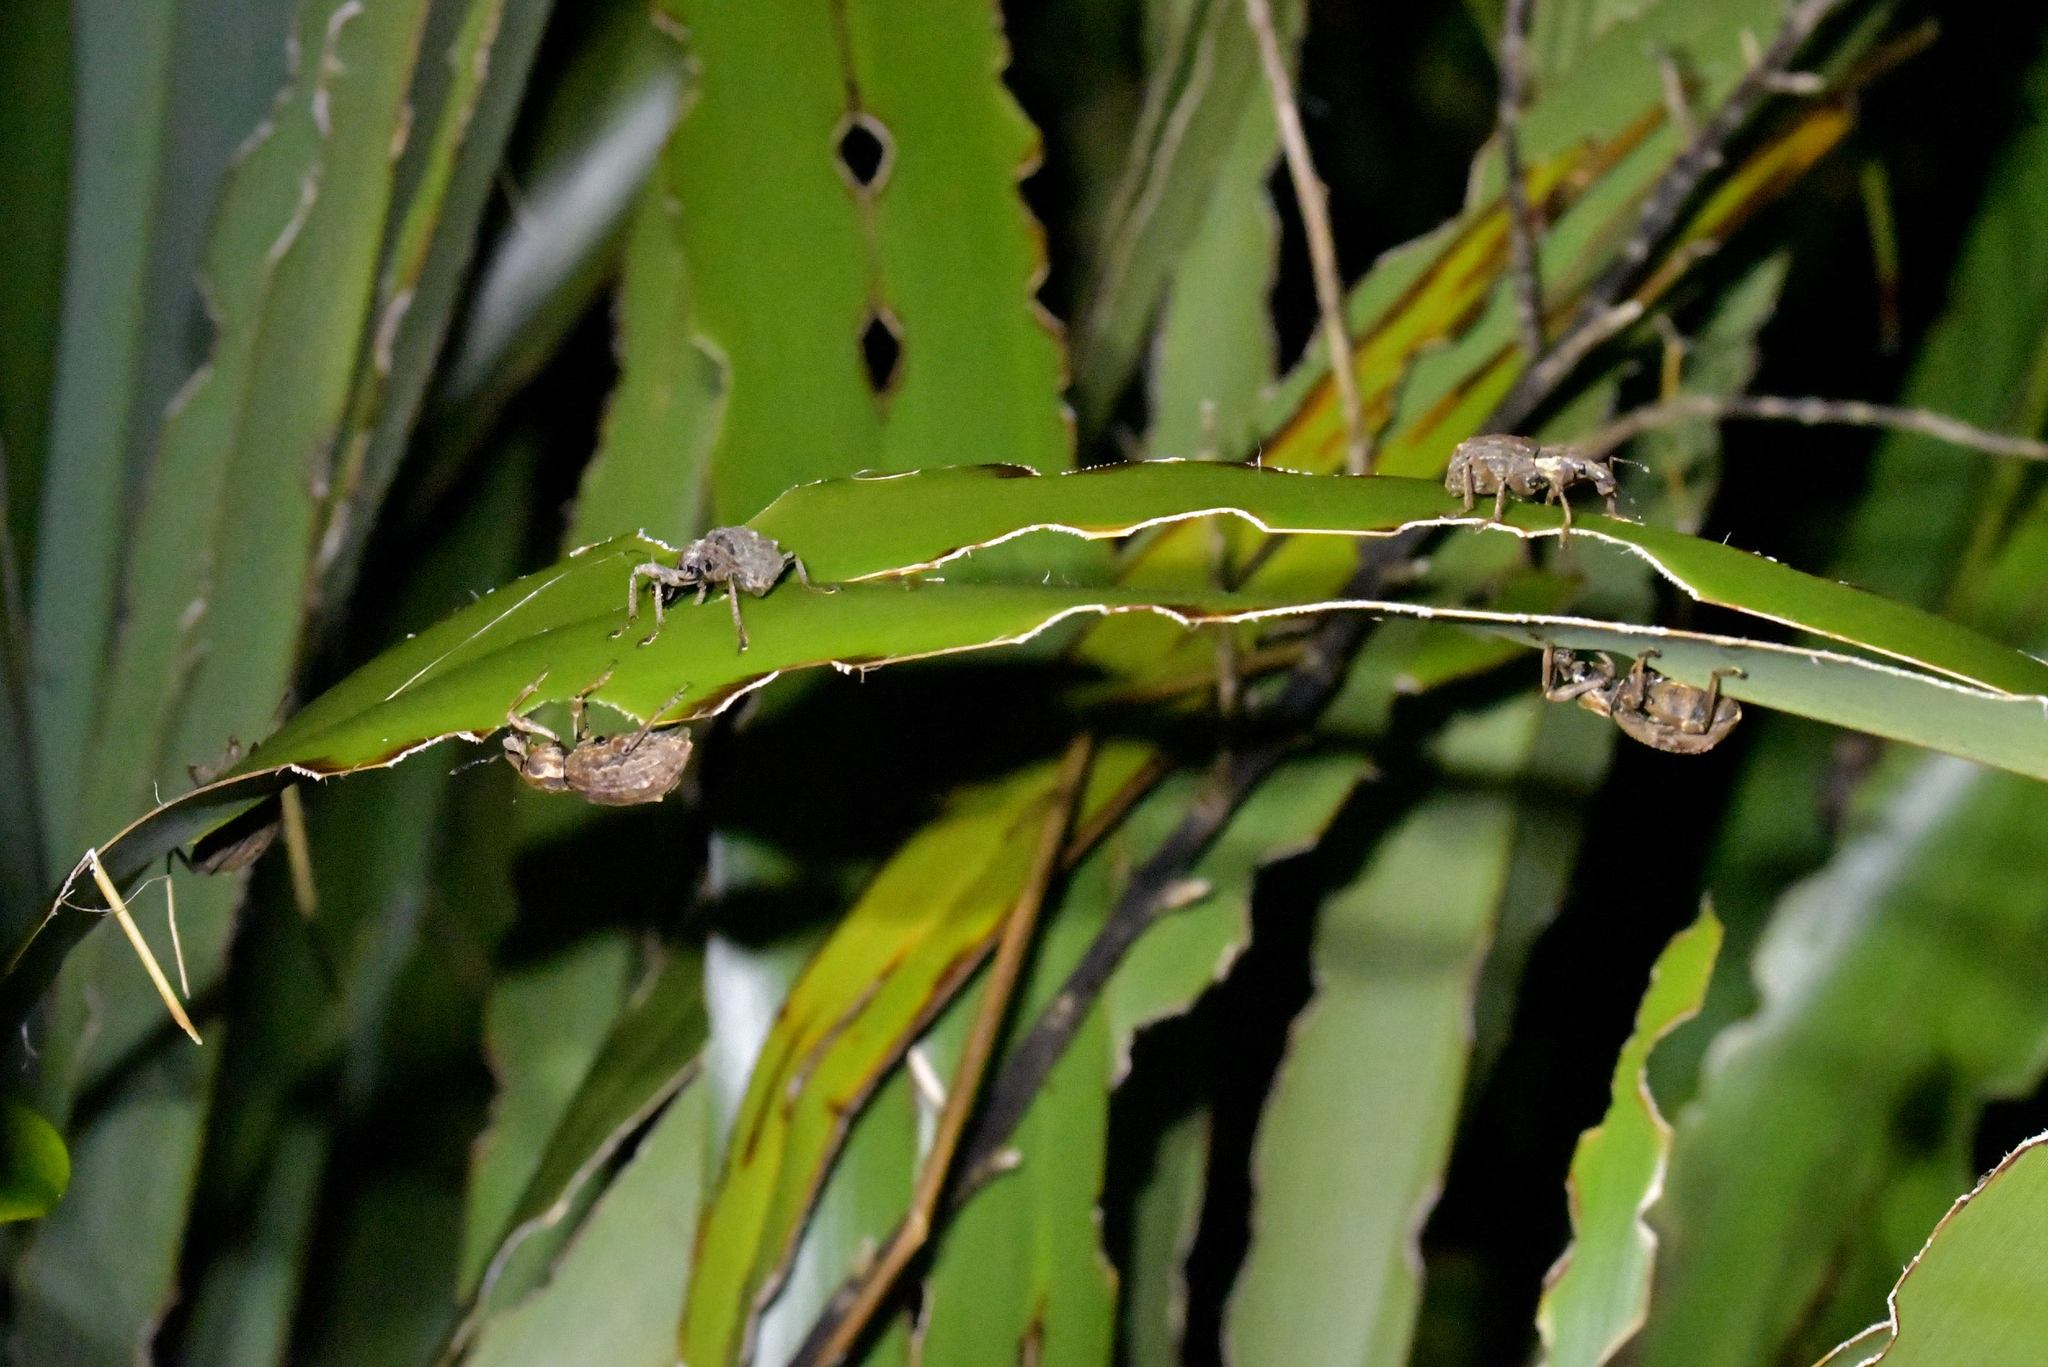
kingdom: Animalia
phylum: Arthropoda
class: Insecta
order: Coleoptera
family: Curculionidae
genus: Anagotus
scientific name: Anagotus fairburni
